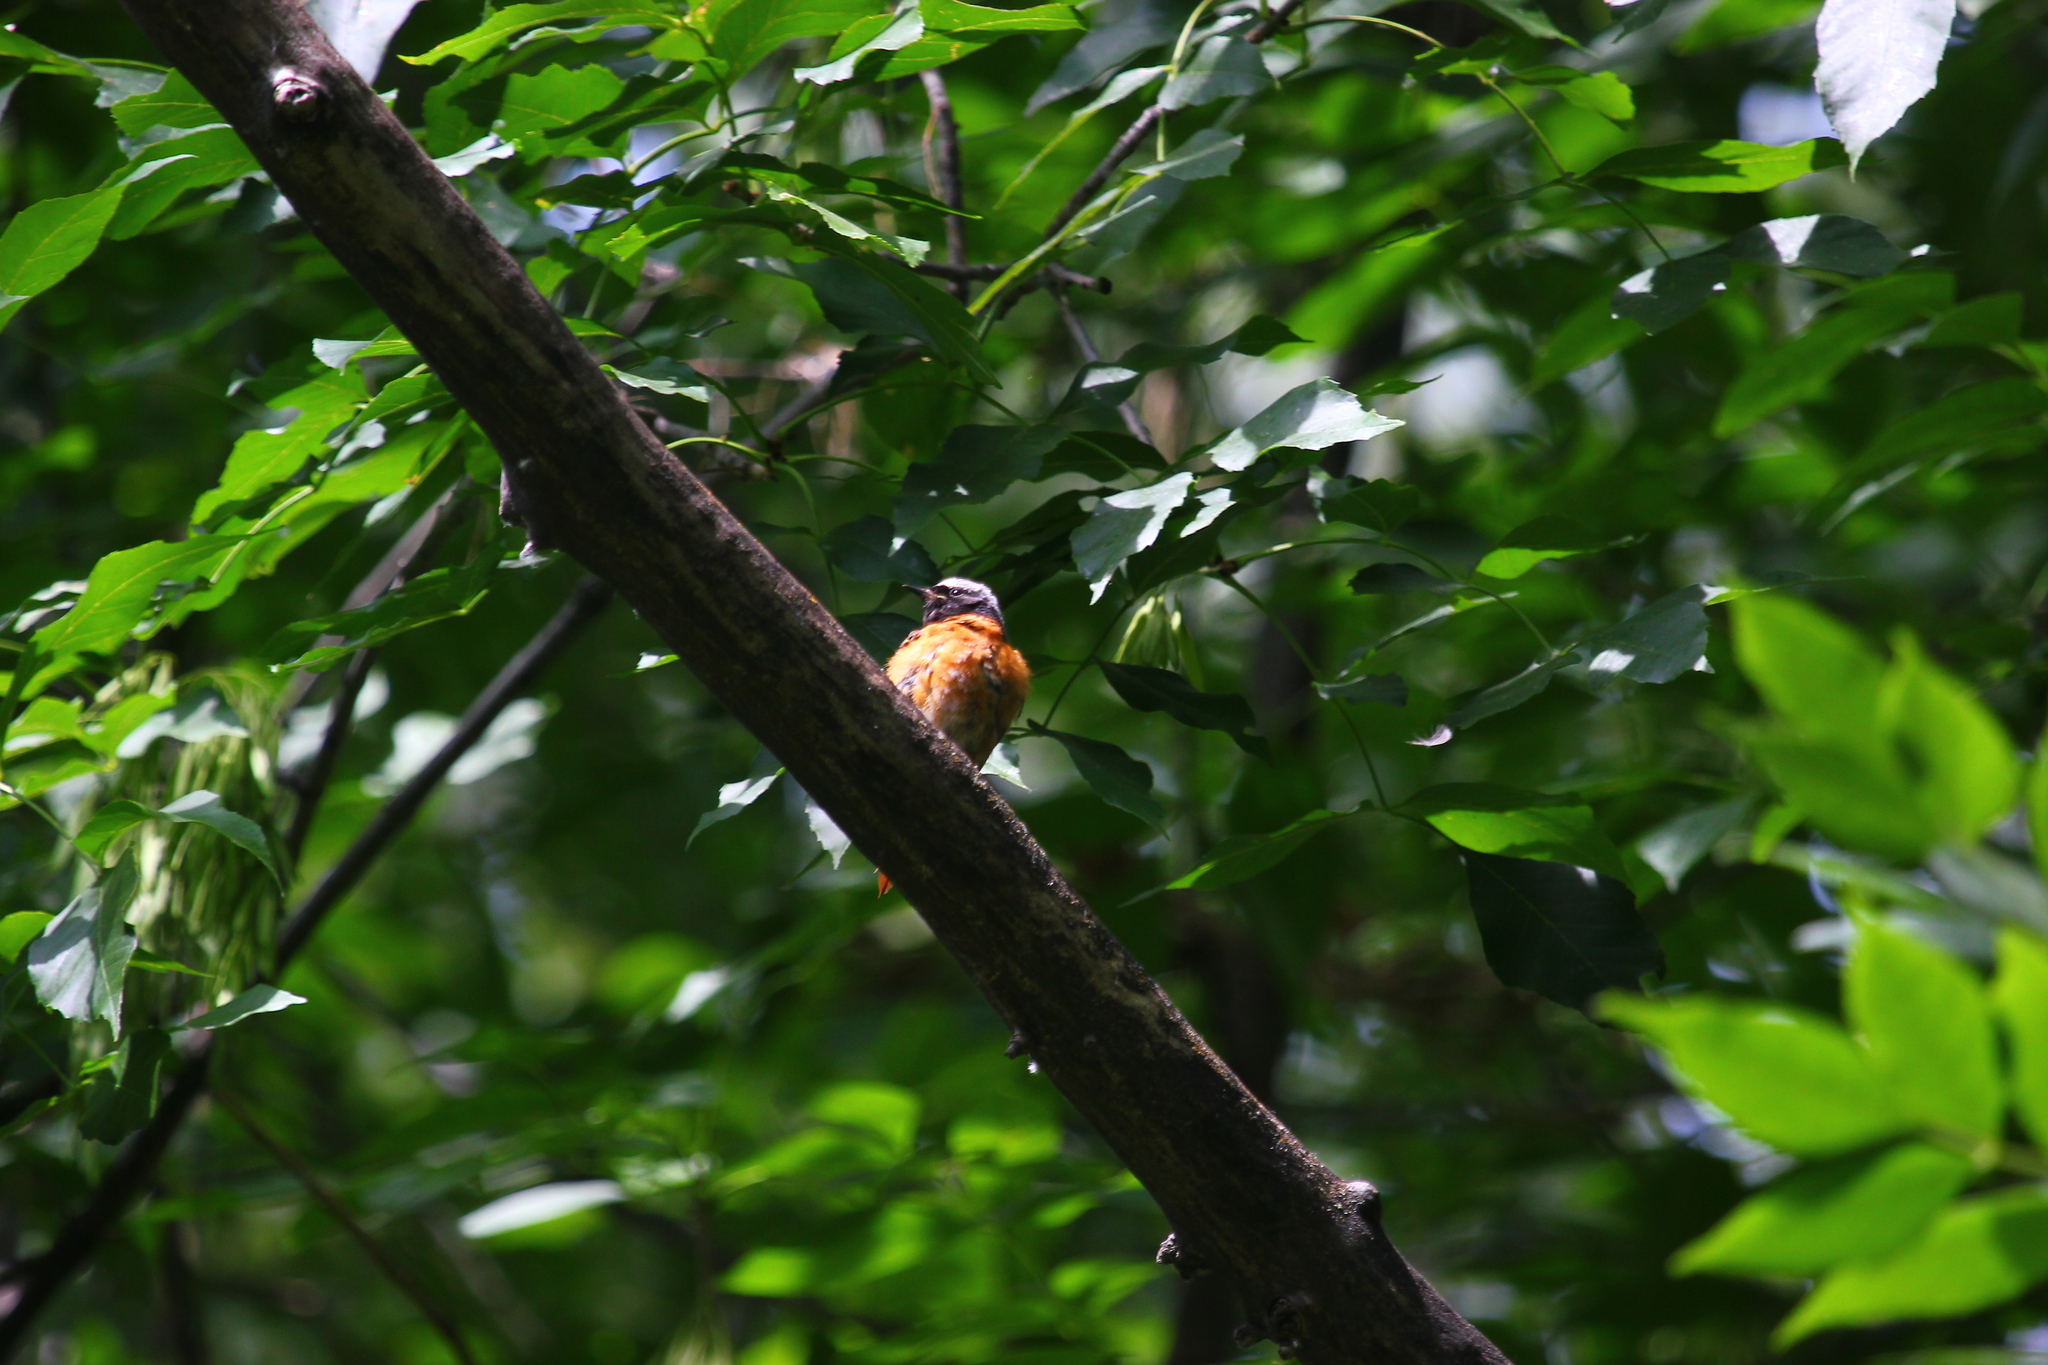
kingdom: Animalia
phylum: Chordata
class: Aves
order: Passeriformes
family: Muscicapidae
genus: Phoenicurus
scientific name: Phoenicurus phoenicurus
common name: Common redstart
